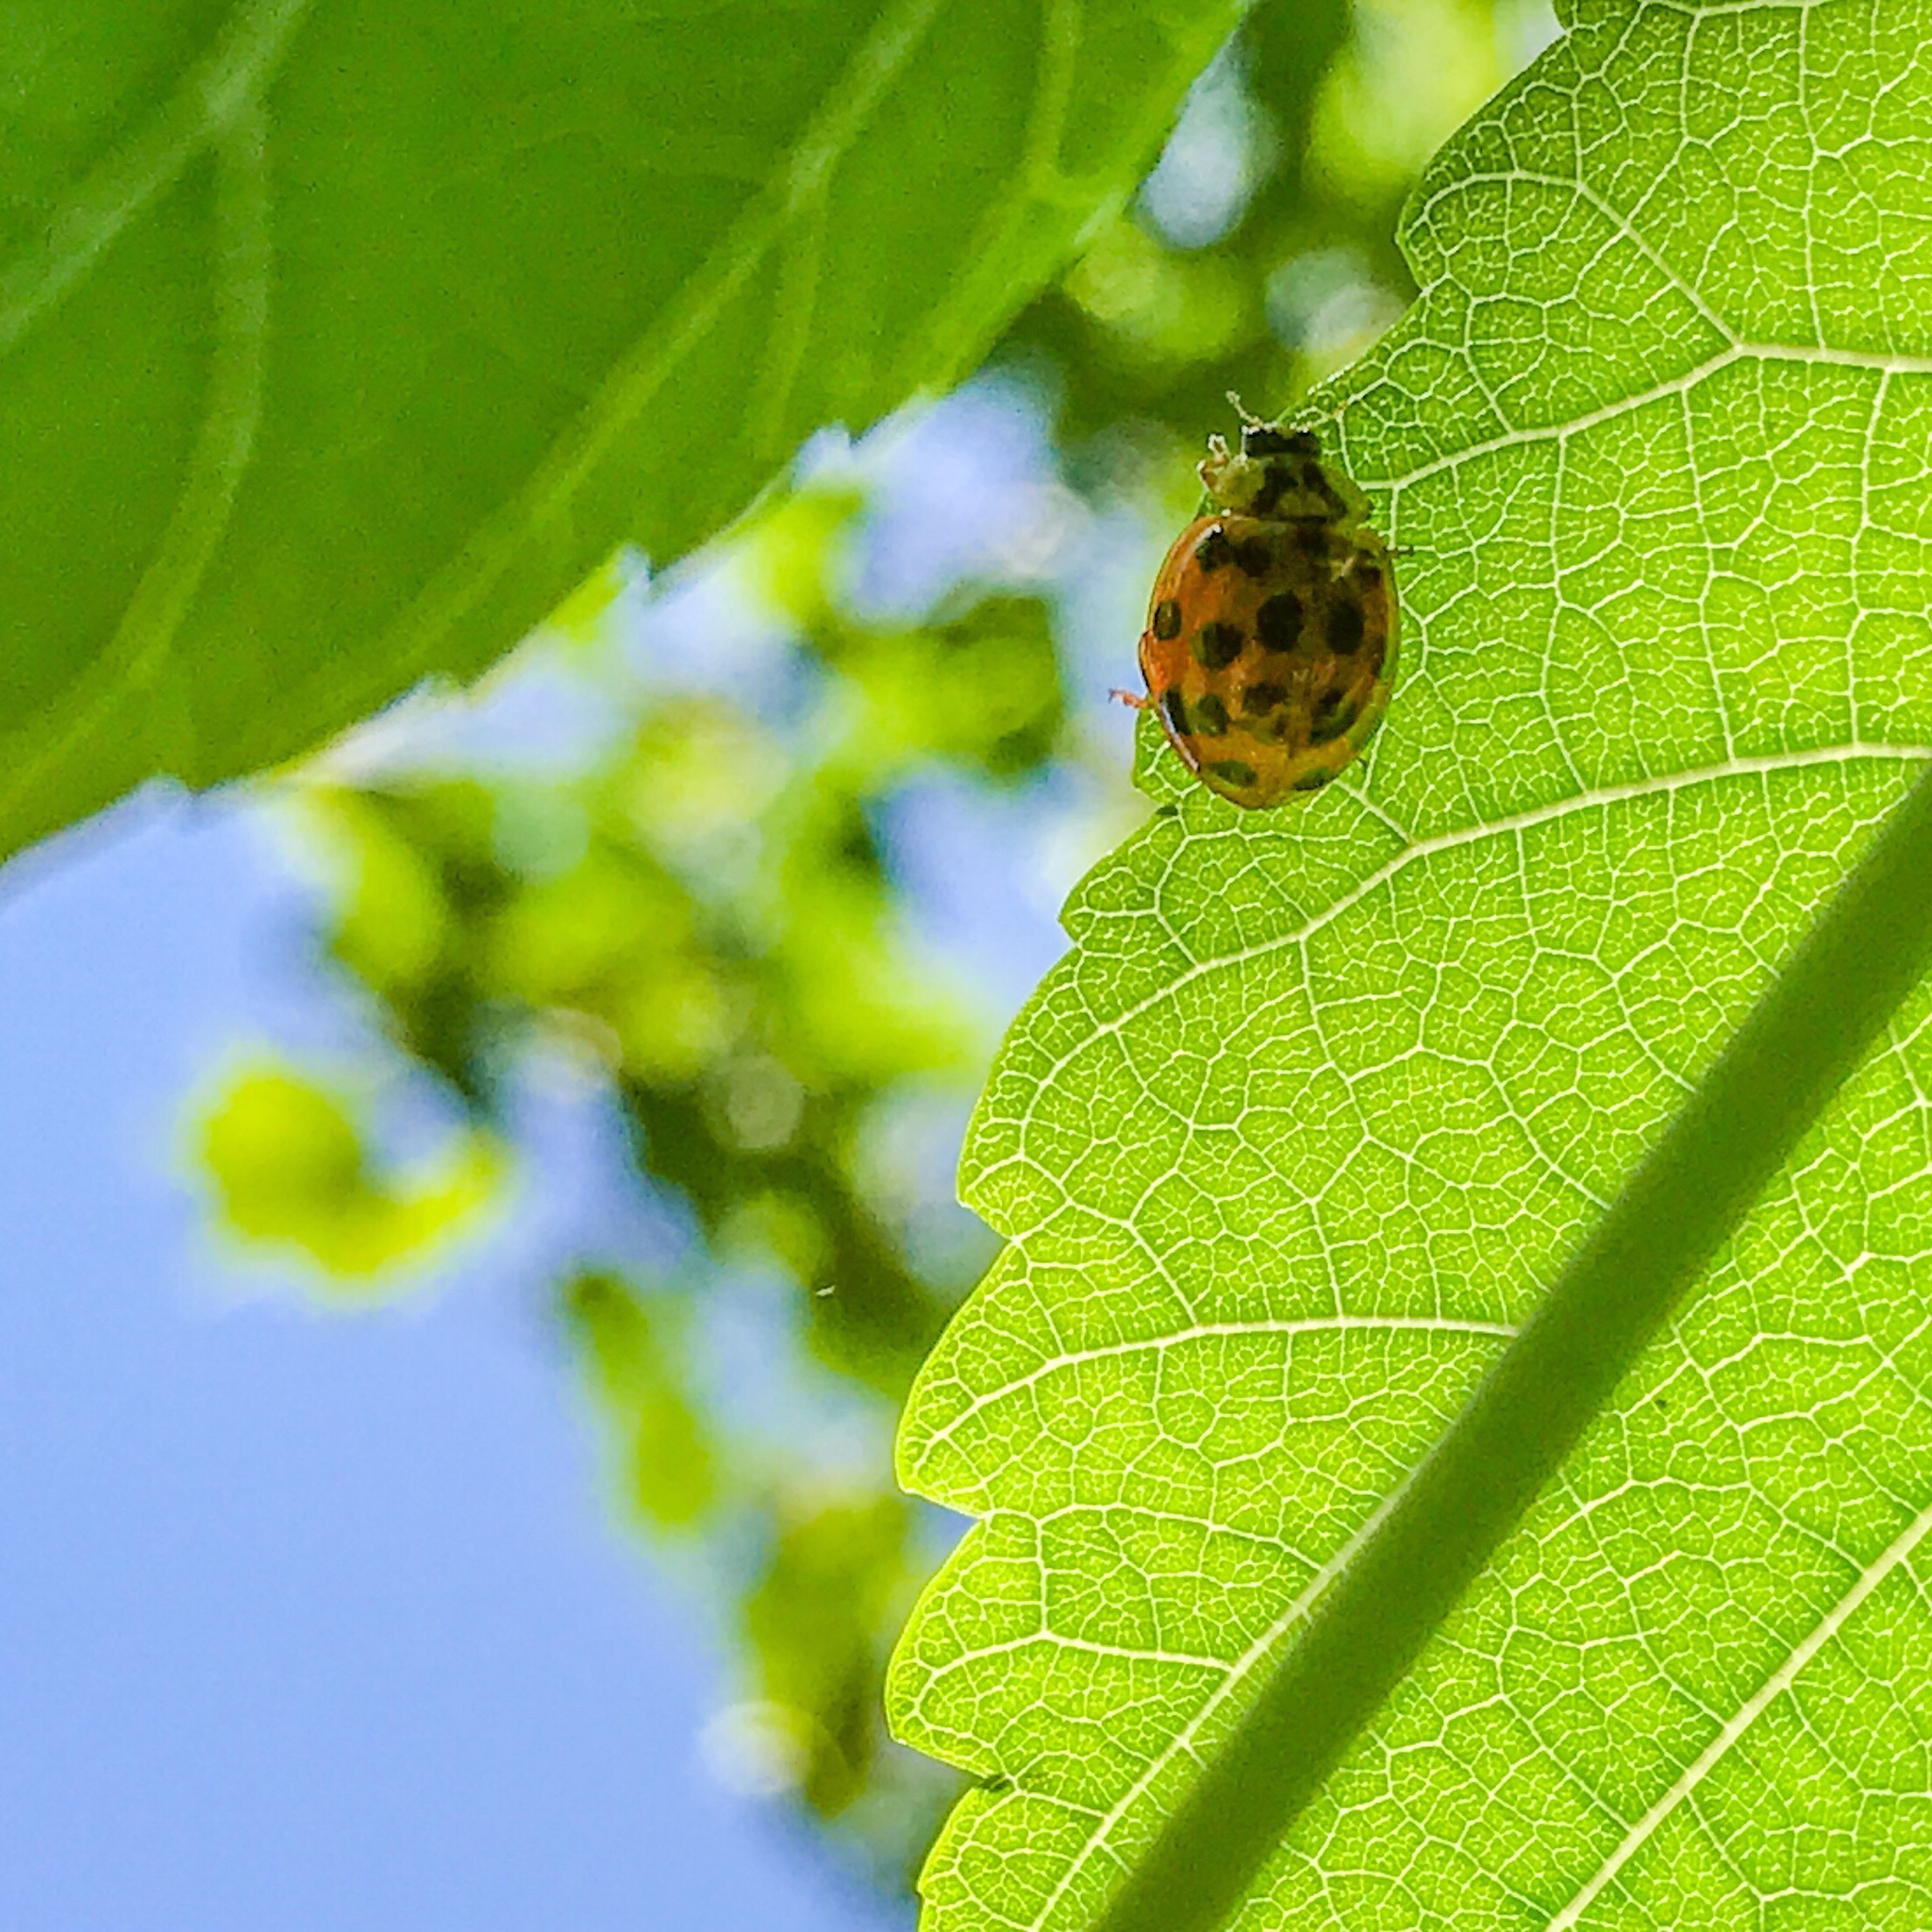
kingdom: Animalia
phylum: Arthropoda
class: Insecta
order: Coleoptera
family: Coccinellidae
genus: Harmonia
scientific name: Harmonia axyridis
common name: Harlequin ladybird
